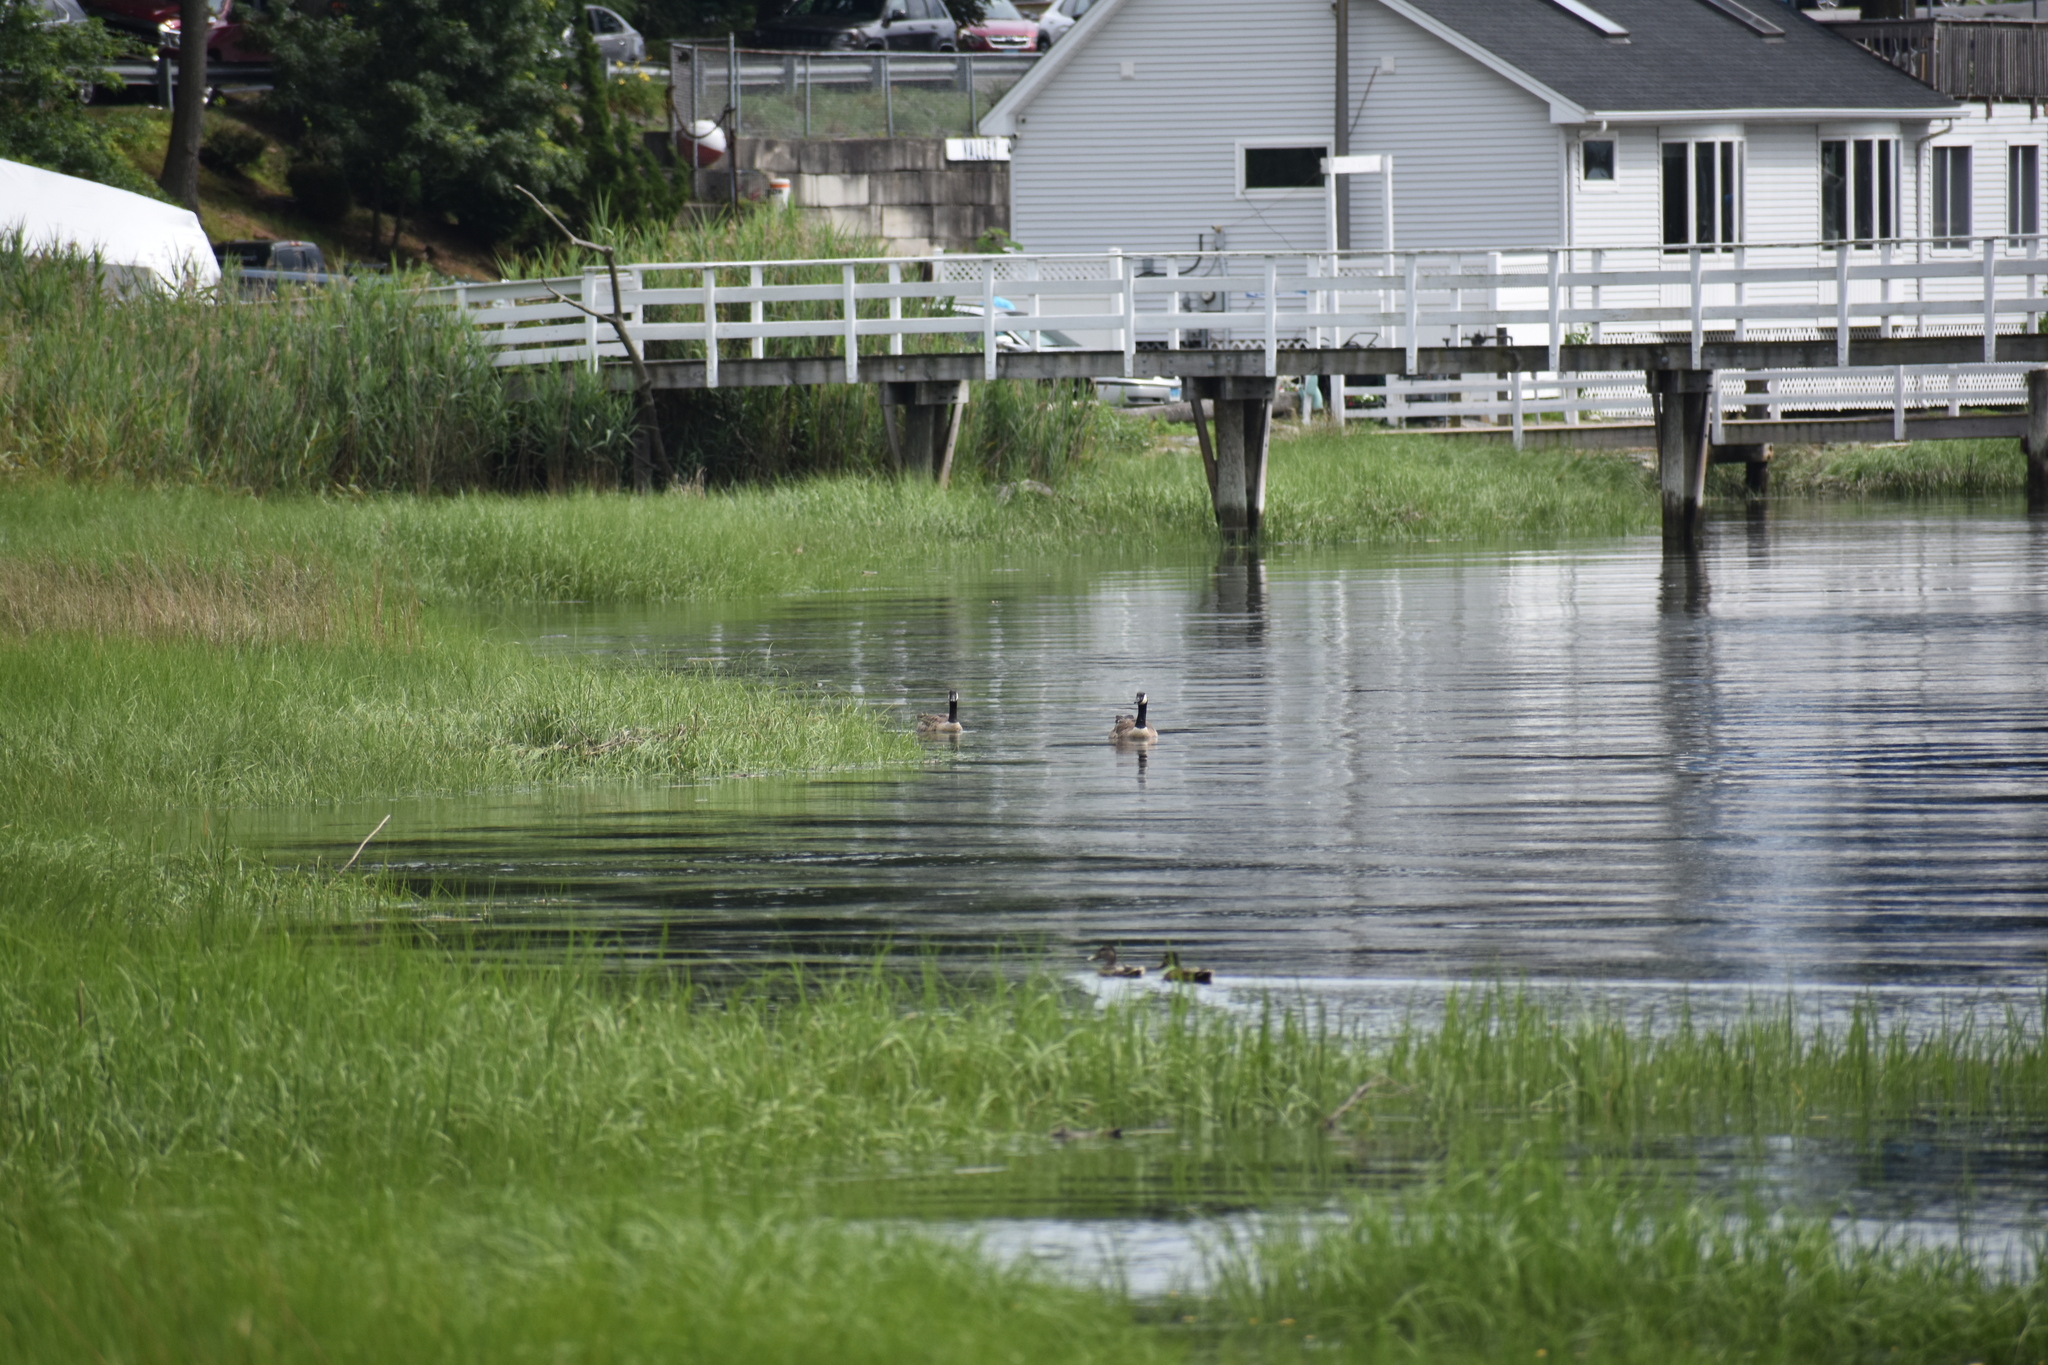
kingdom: Animalia
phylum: Chordata
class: Aves
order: Anseriformes
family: Anatidae
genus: Branta
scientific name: Branta canadensis
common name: Canada goose
